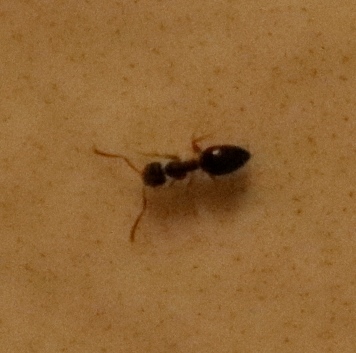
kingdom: Animalia
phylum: Arthropoda
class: Insecta
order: Hymenoptera
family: Formicidae
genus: Tapinoma
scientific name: Tapinoma pallipes
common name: Ant
